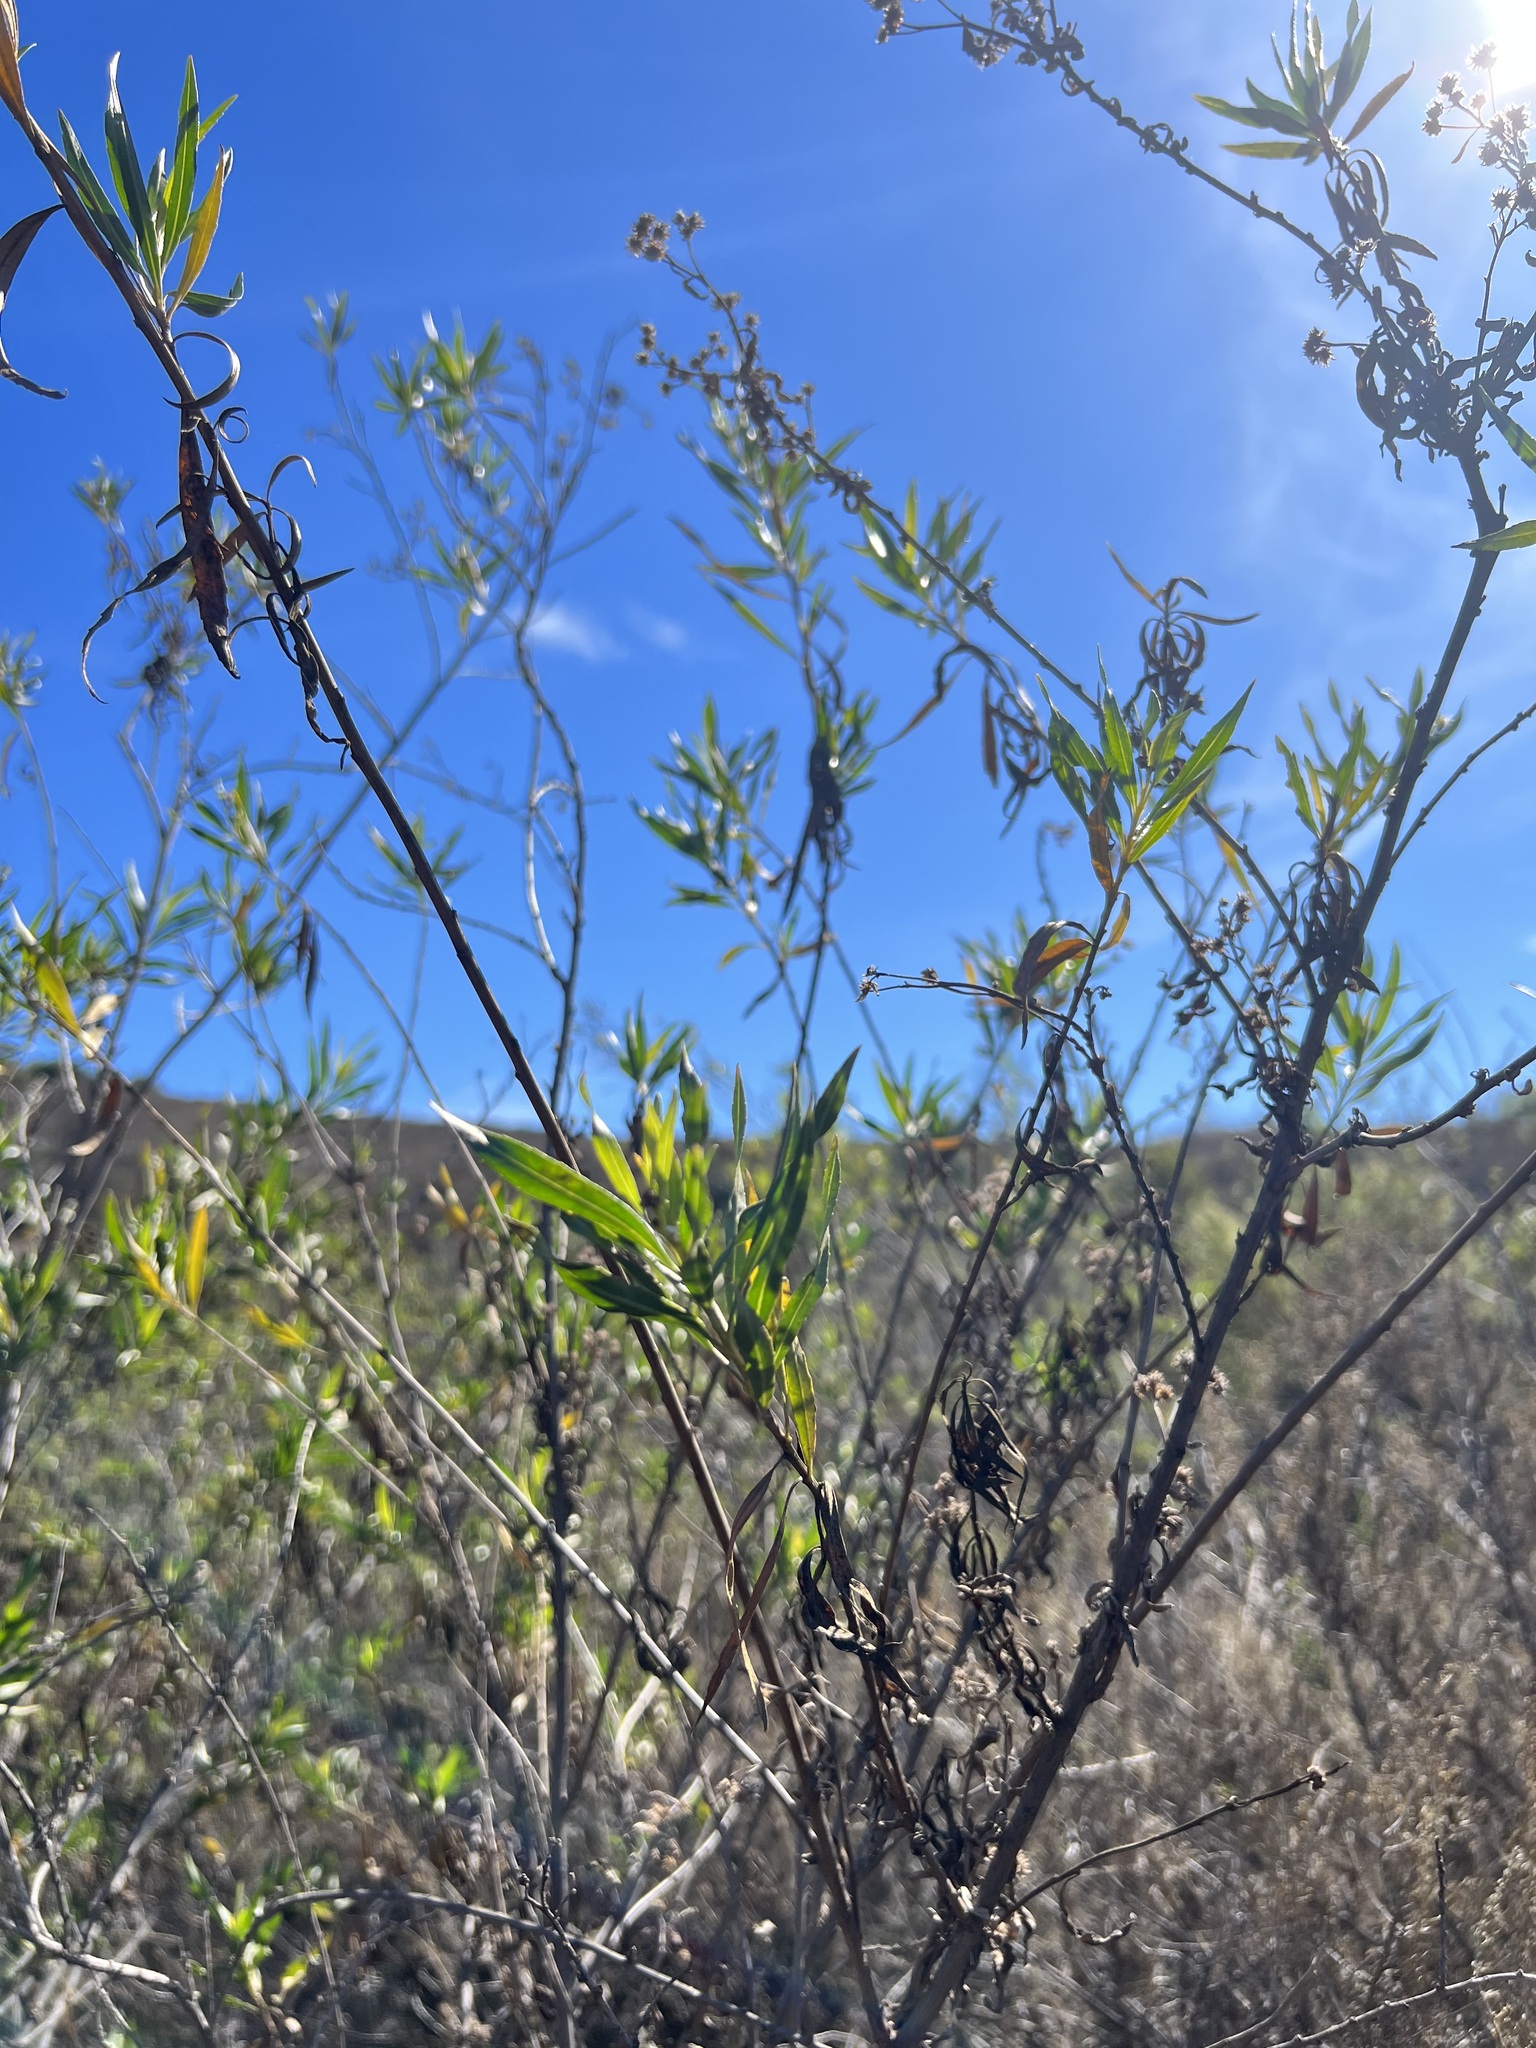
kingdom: Plantae
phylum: Tracheophyta
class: Magnoliopsida
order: Asterales
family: Asteraceae
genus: Baccharis
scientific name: Baccharis salicifolia
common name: Sticky baccharis
